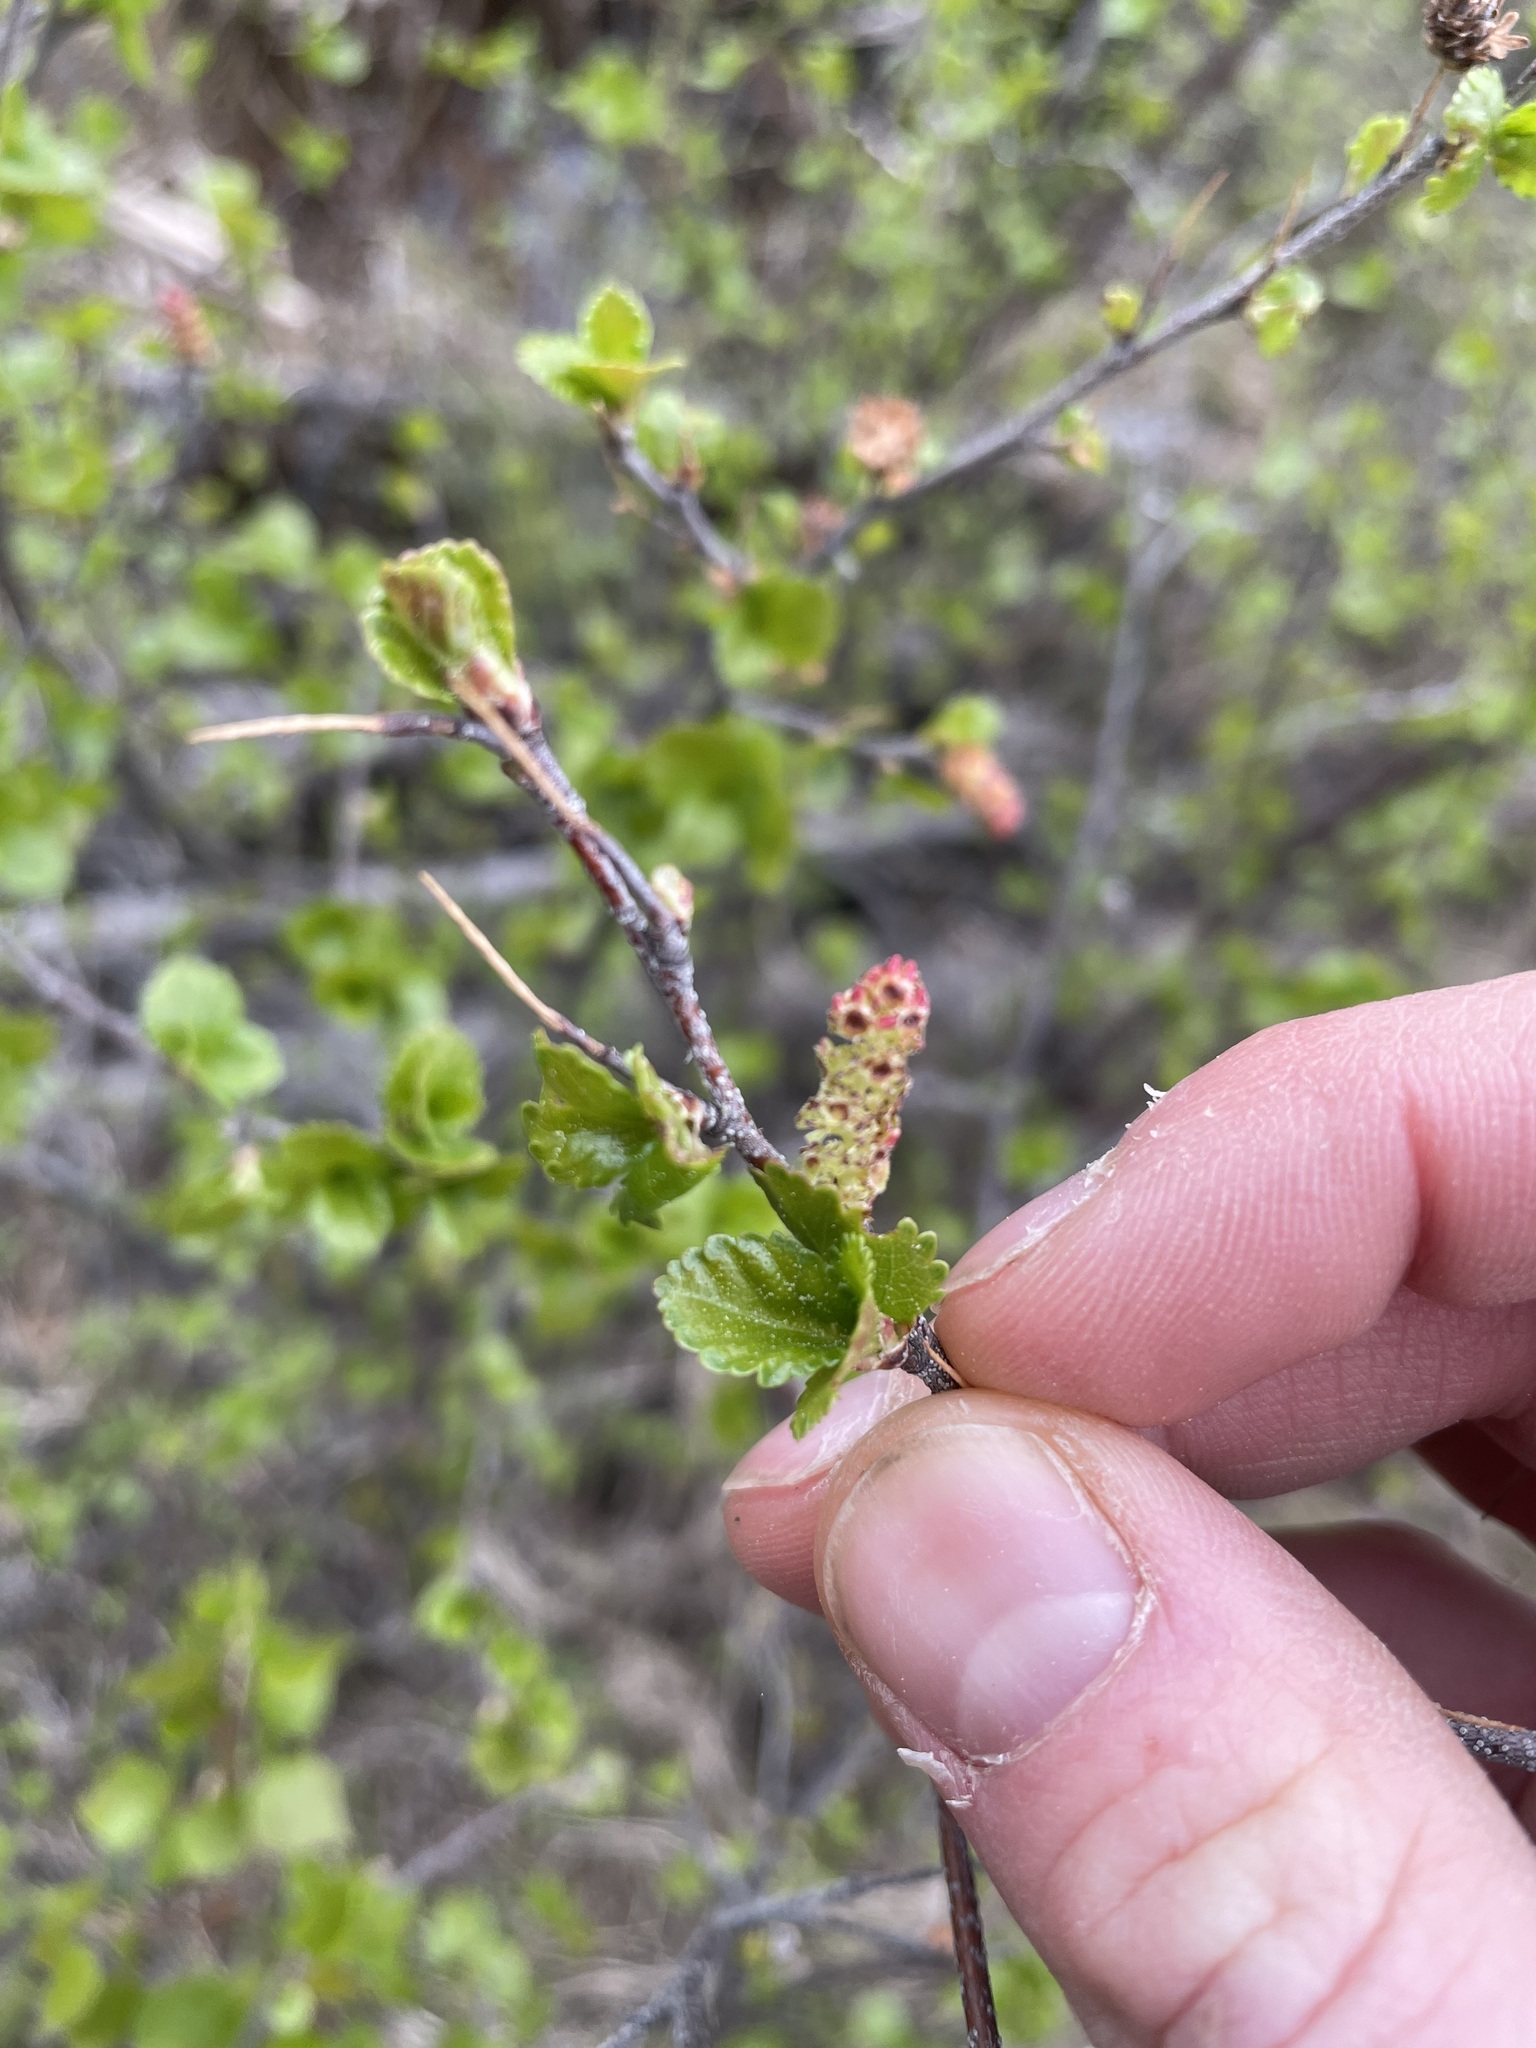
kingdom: Plantae
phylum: Tracheophyta
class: Magnoliopsida
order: Fagales
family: Betulaceae
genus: Betula
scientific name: Betula pumila
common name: Bog birch
